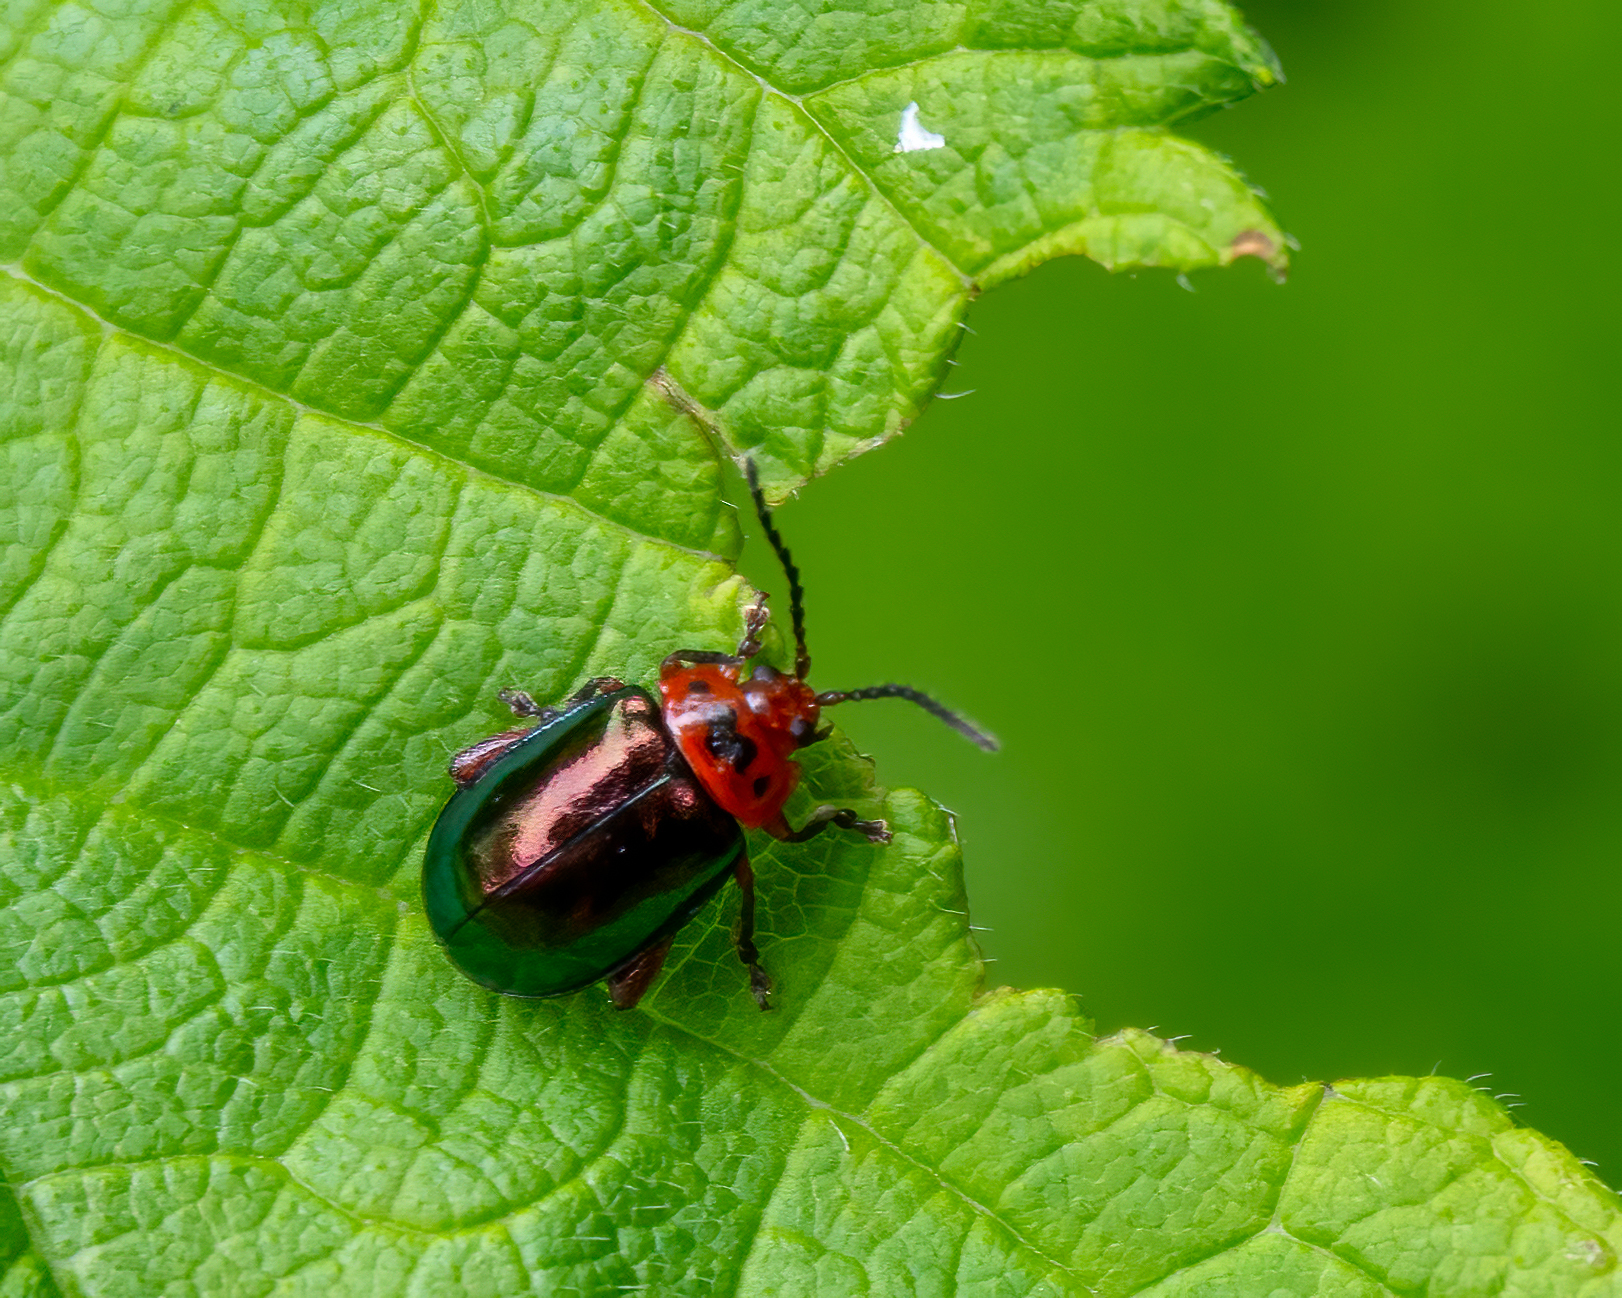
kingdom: Animalia
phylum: Arthropoda
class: Insecta
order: Coleoptera
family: Chrysomelidae
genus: Kuschelina
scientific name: Kuschelina gibbitarsa
